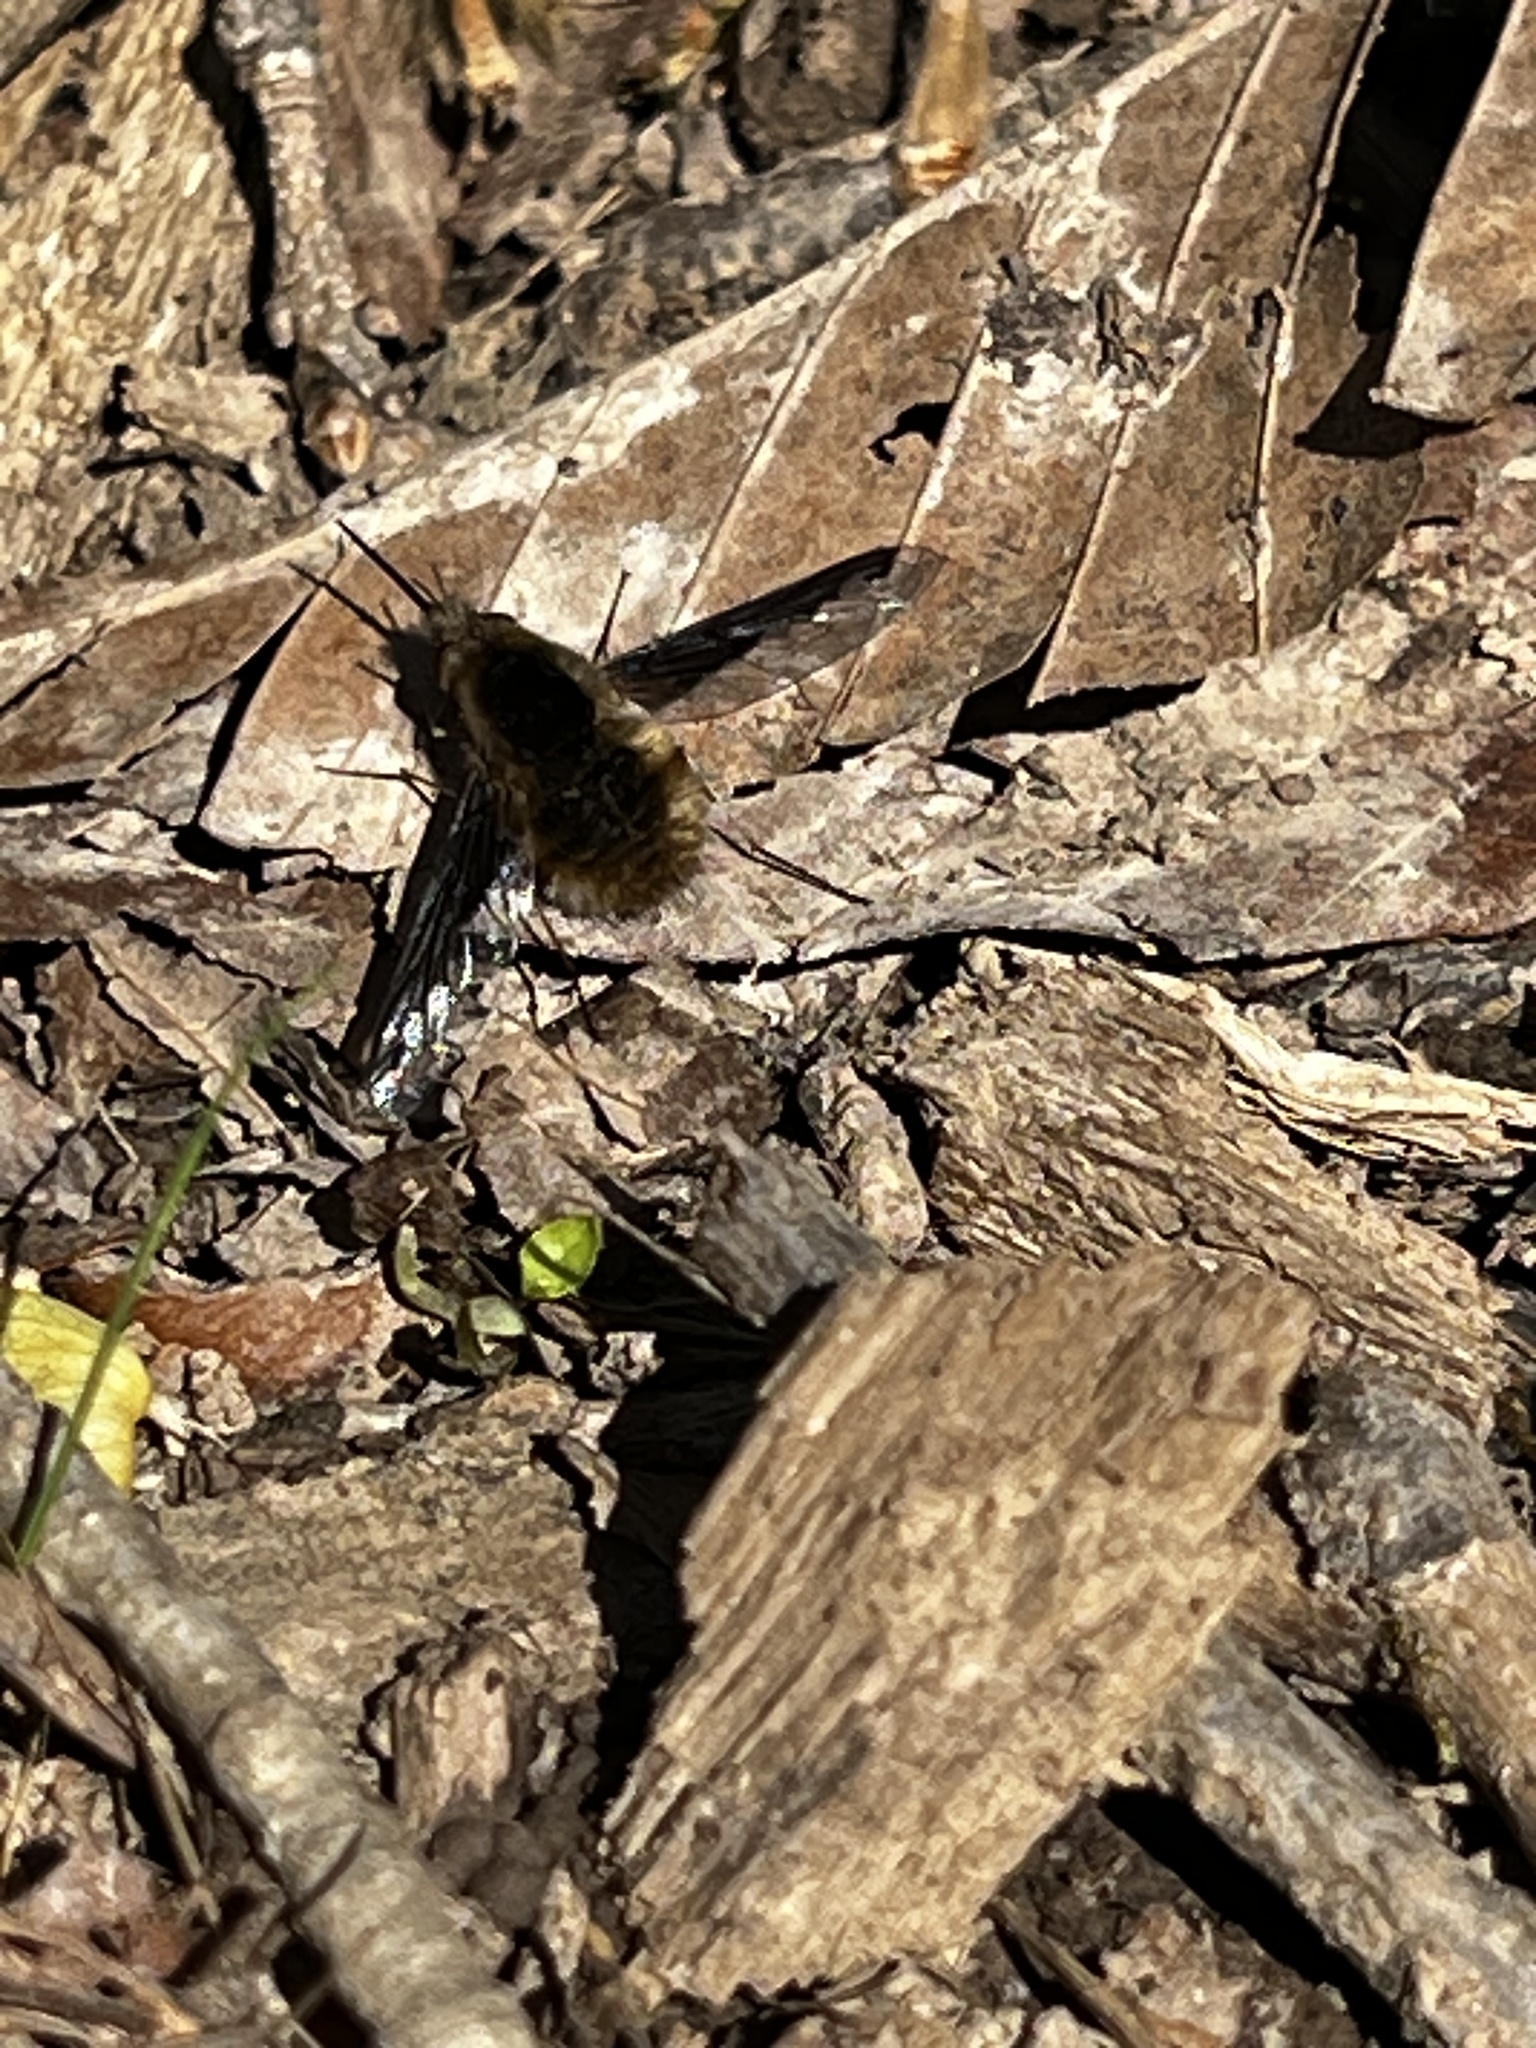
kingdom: Animalia
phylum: Arthropoda
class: Insecta
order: Diptera
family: Bombyliidae
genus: Bombylius
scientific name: Bombylius major
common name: Bee fly
